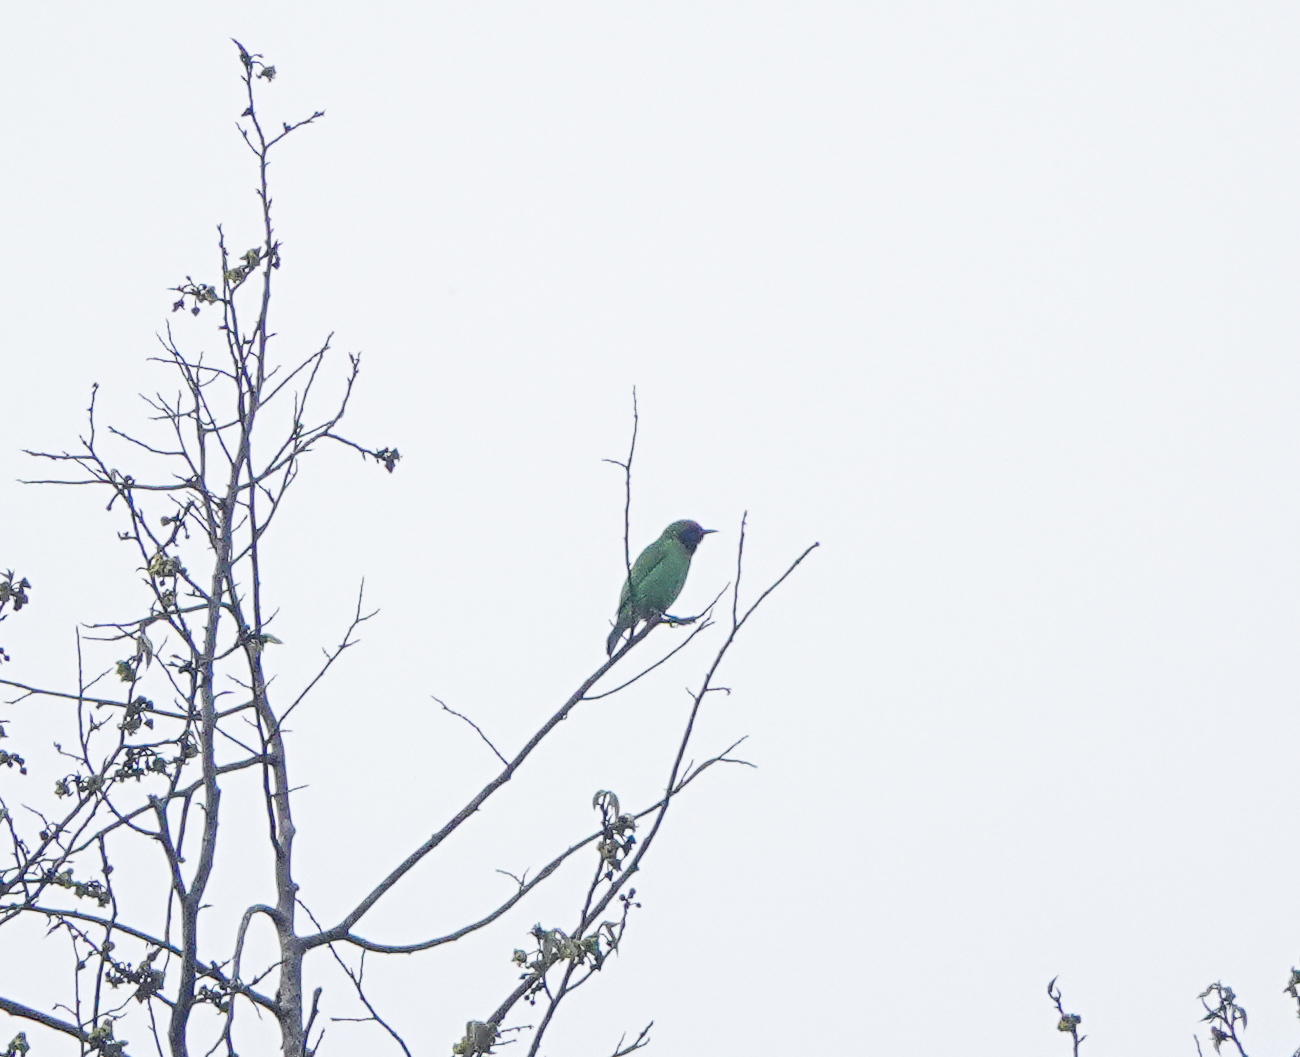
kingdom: Animalia
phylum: Chordata
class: Aves
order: Passeriformes
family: Chloropseidae
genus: Chloropsis
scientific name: Chloropsis aurifrons
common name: Golden-fronted leafbird
